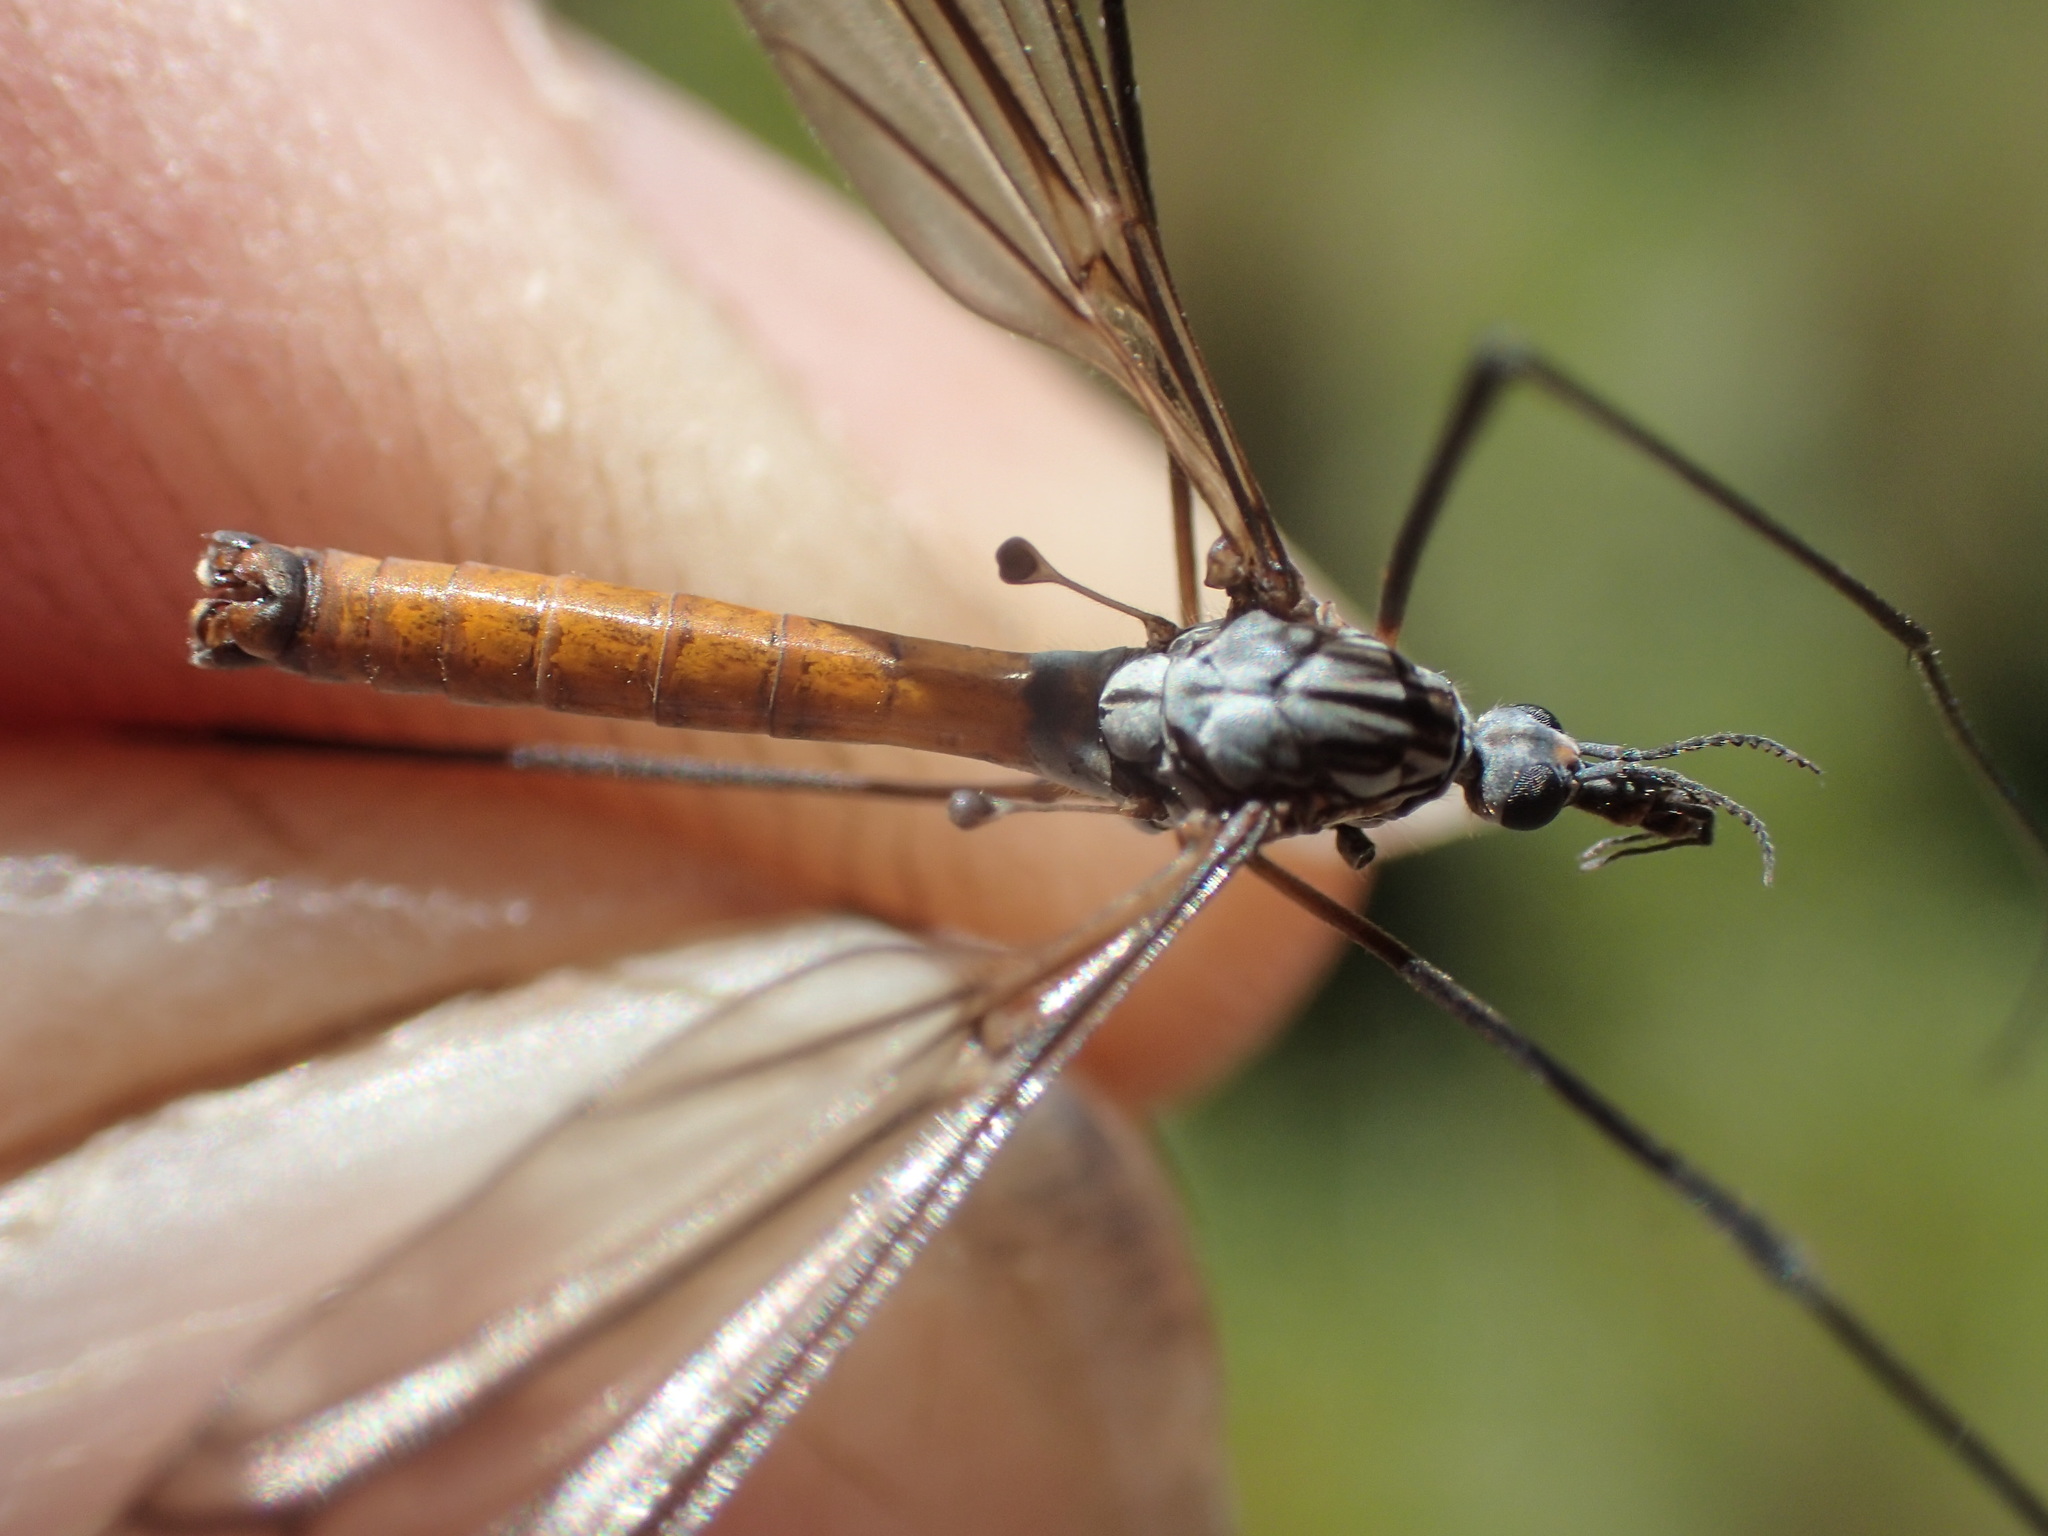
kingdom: Animalia
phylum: Arthropoda
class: Insecta
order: Diptera
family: Tipulidae
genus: Ischnotoma
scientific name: Ischnotoma rubroabdominalis
